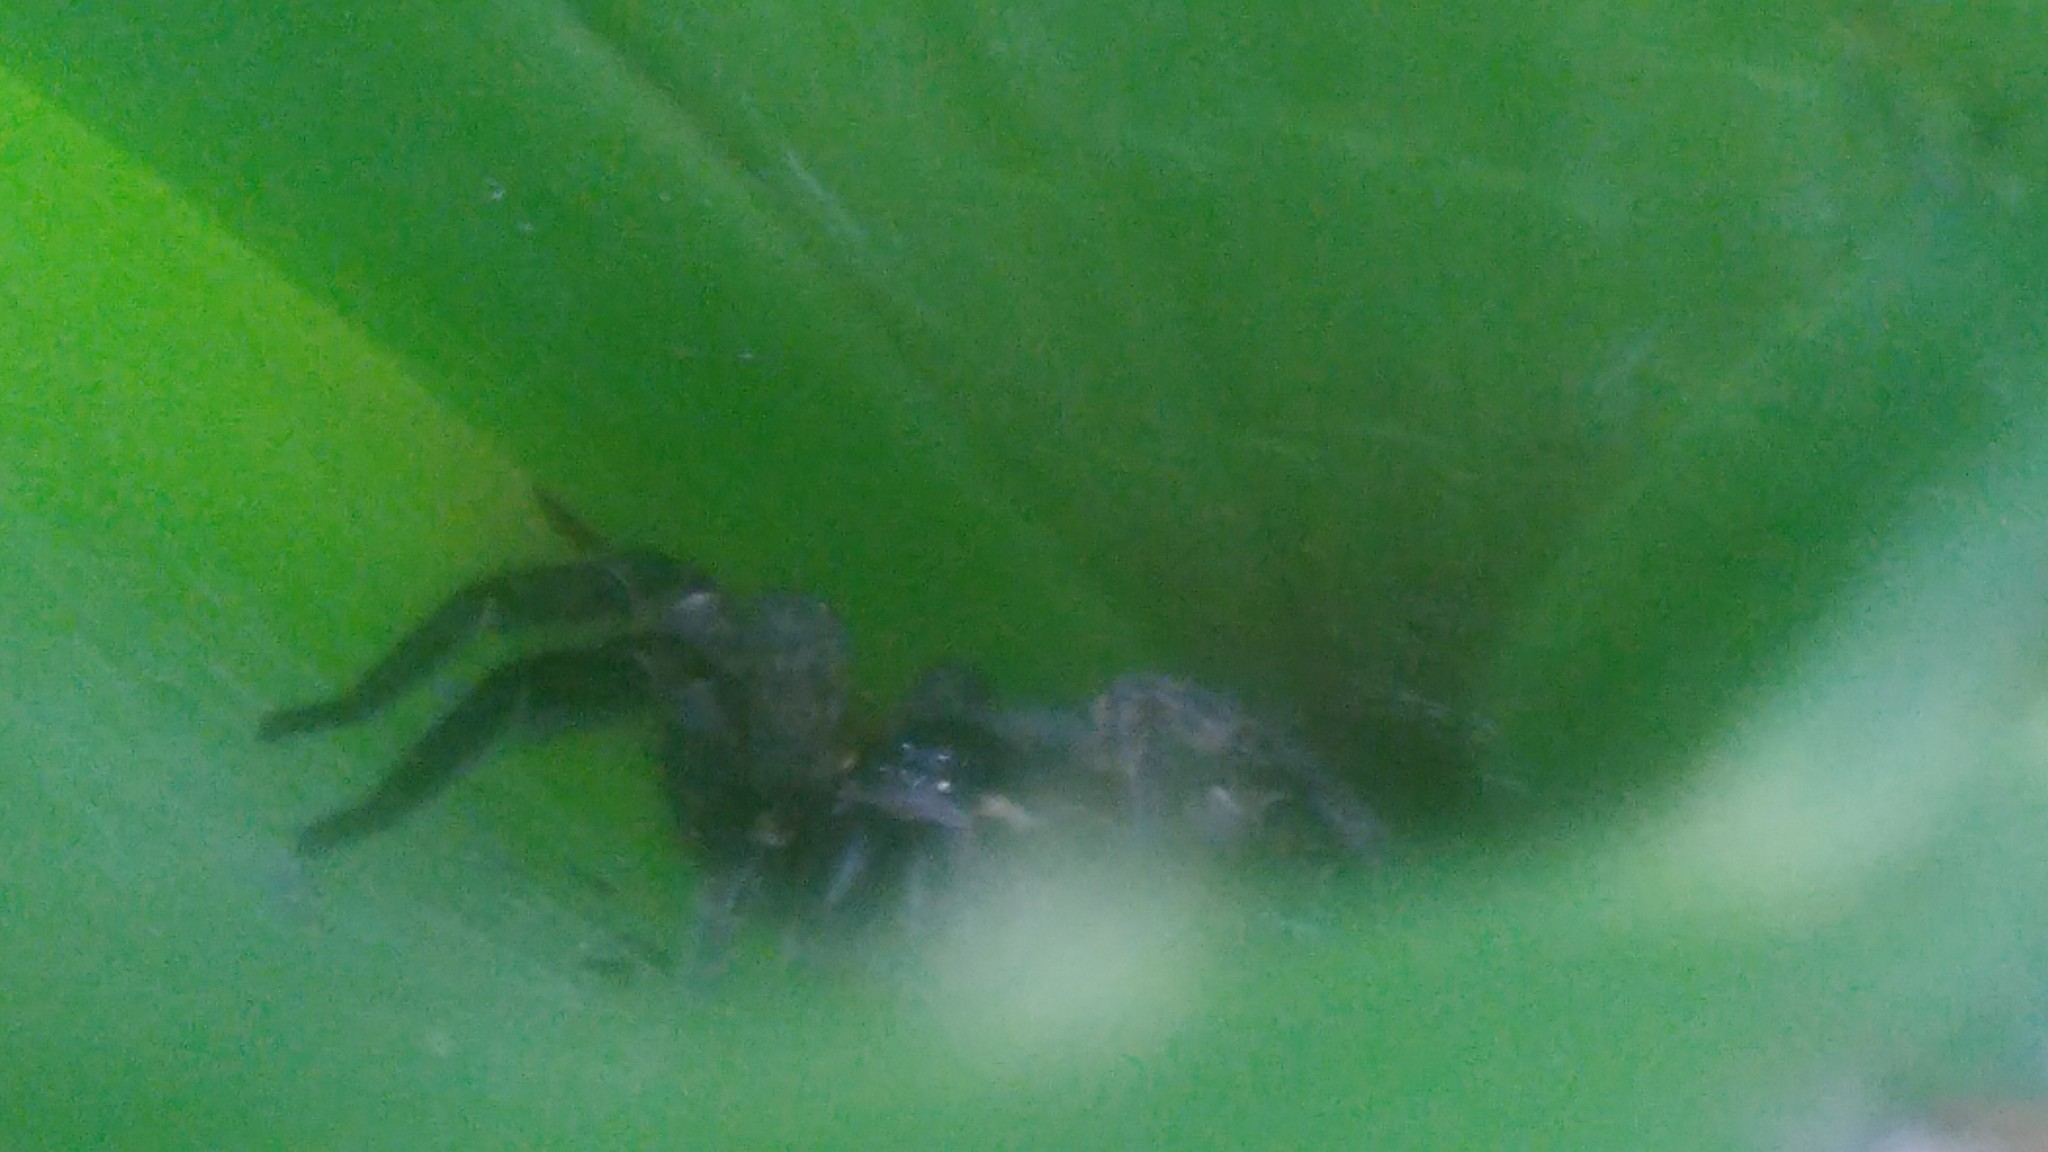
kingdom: Animalia
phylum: Arthropoda
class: Arachnida
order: Araneae
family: Lycosidae
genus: Aglaoctenus
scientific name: Aglaoctenus oblongus
